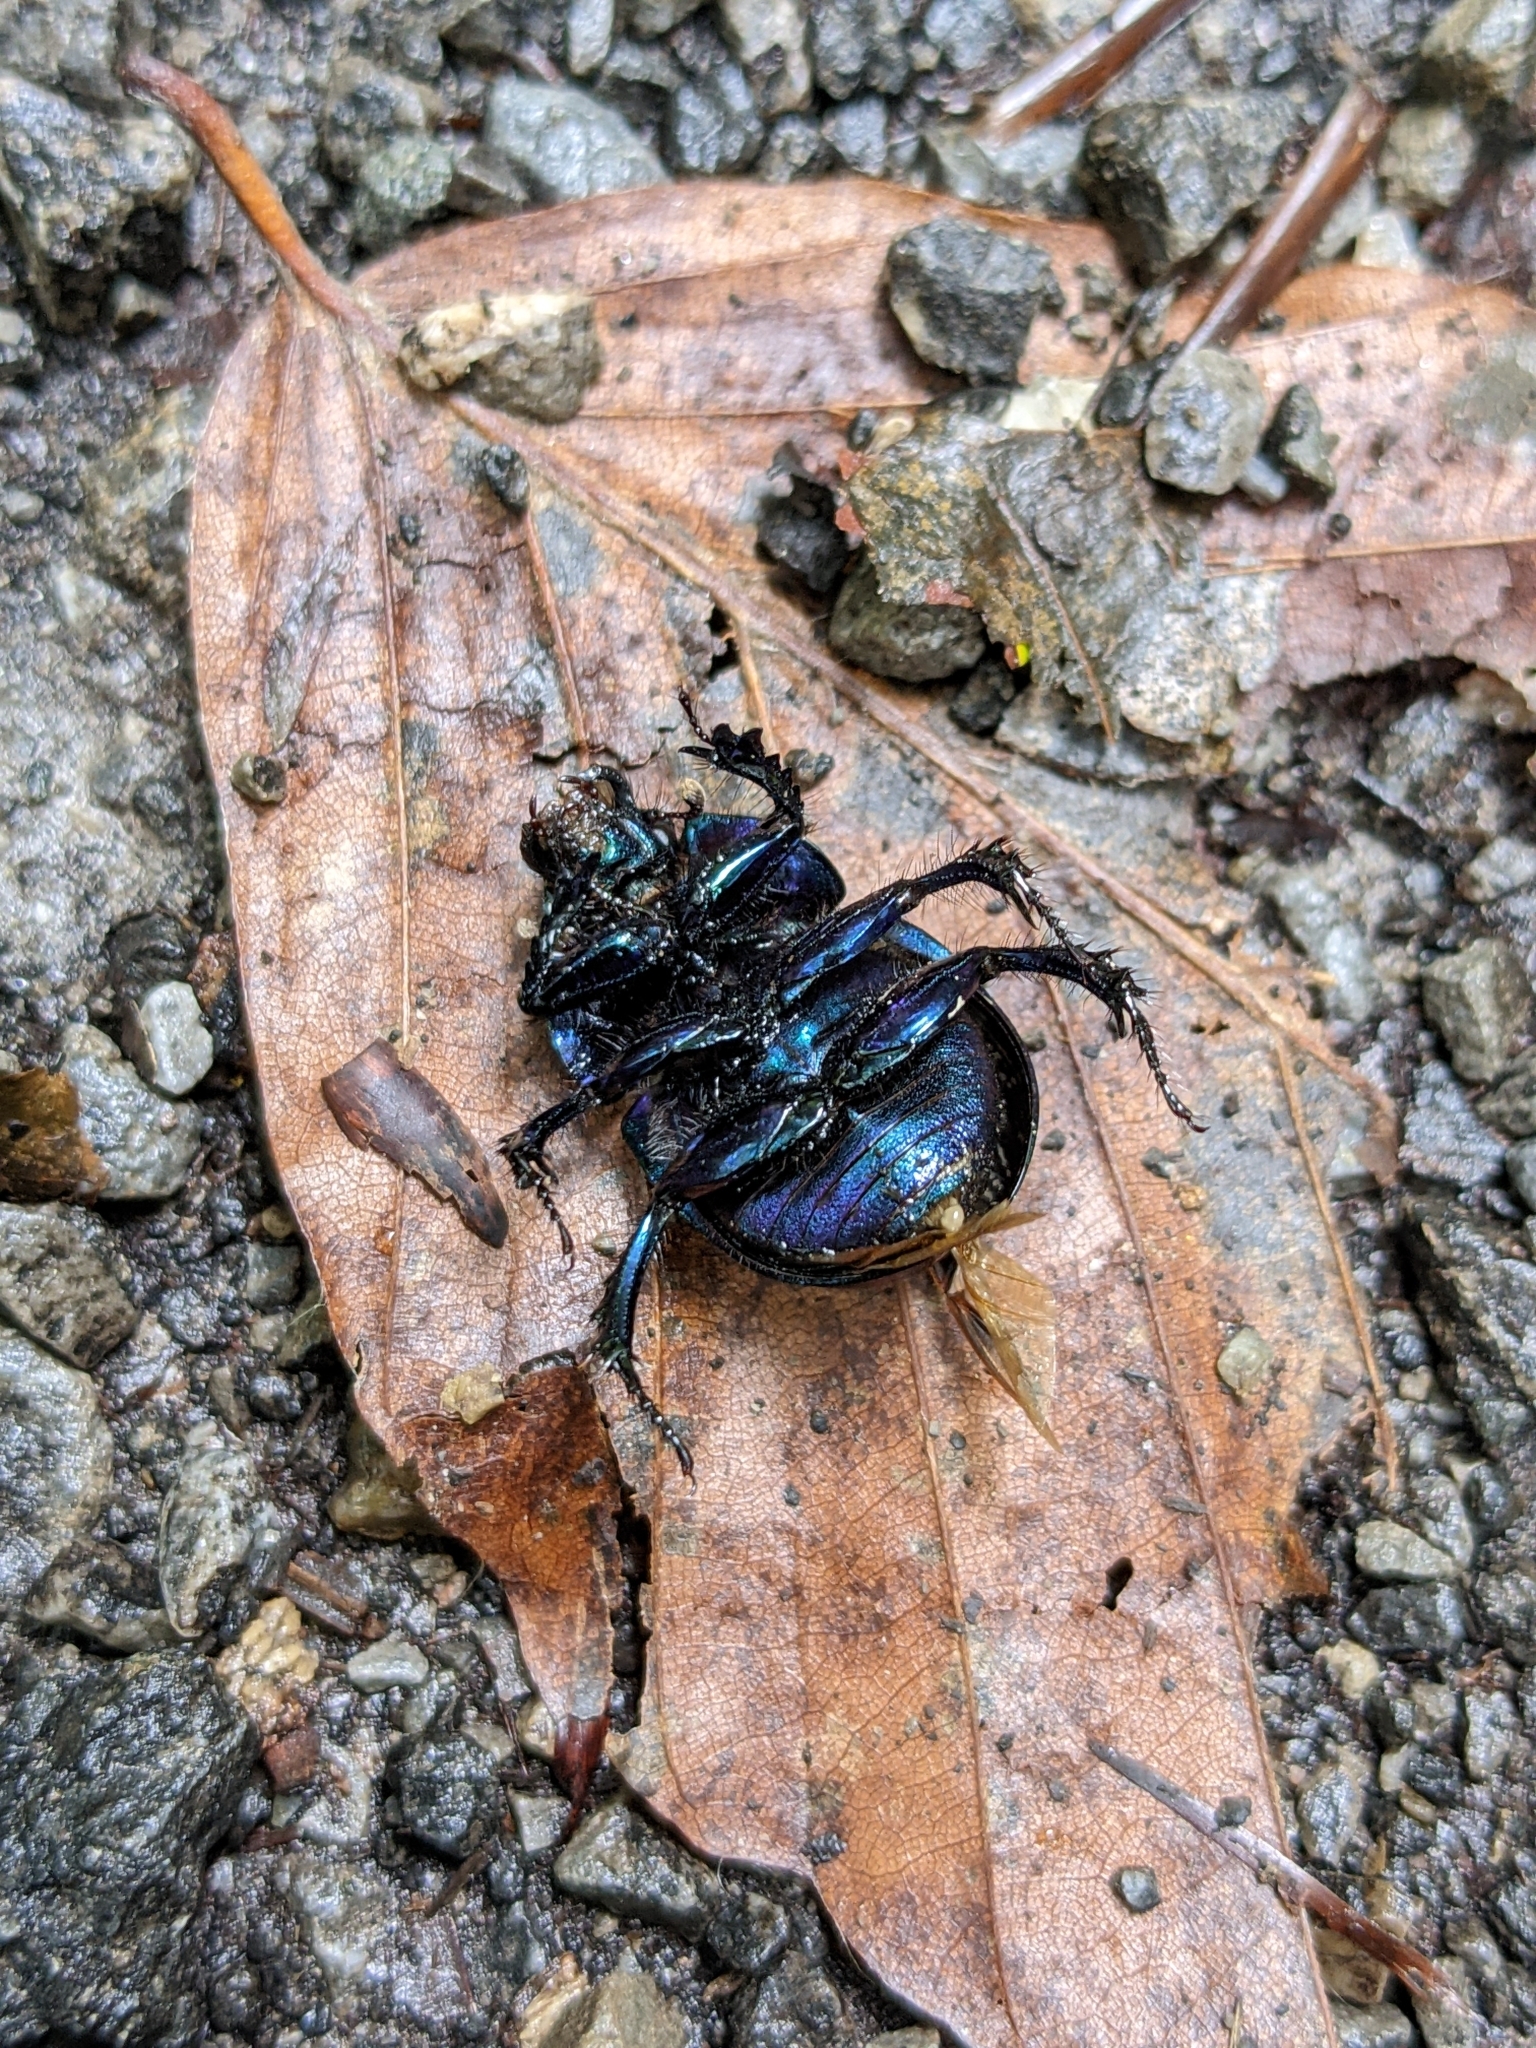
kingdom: Animalia
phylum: Arthropoda
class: Insecta
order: Coleoptera
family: Geotrupidae
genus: Anoplotrupes
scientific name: Anoplotrupes stercorosus
